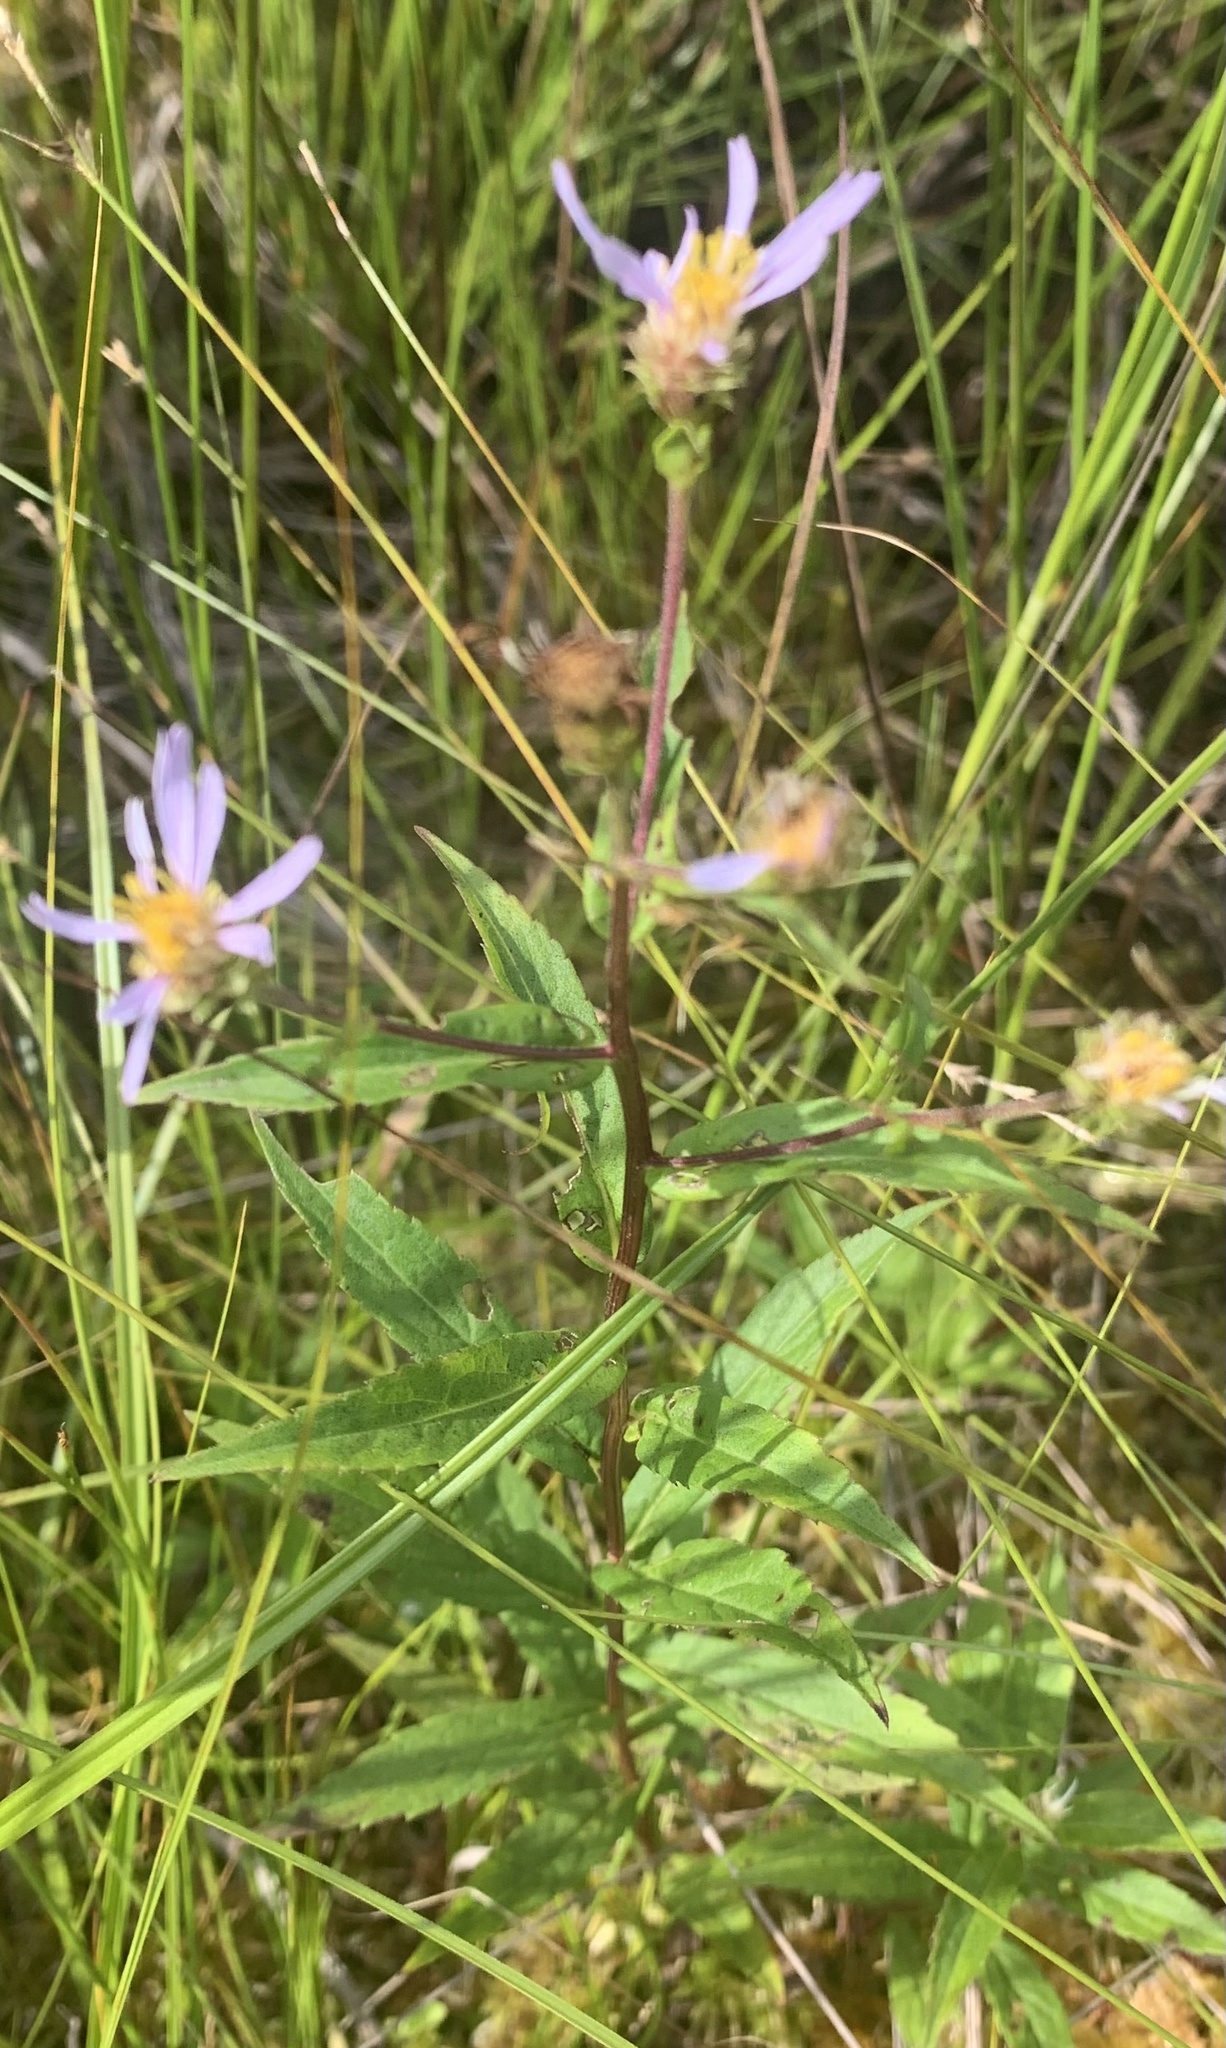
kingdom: Plantae
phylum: Tracheophyta
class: Magnoliopsida
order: Asterales
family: Asteraceae
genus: Eurybia
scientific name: Eurybia radula
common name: Low rough aster
